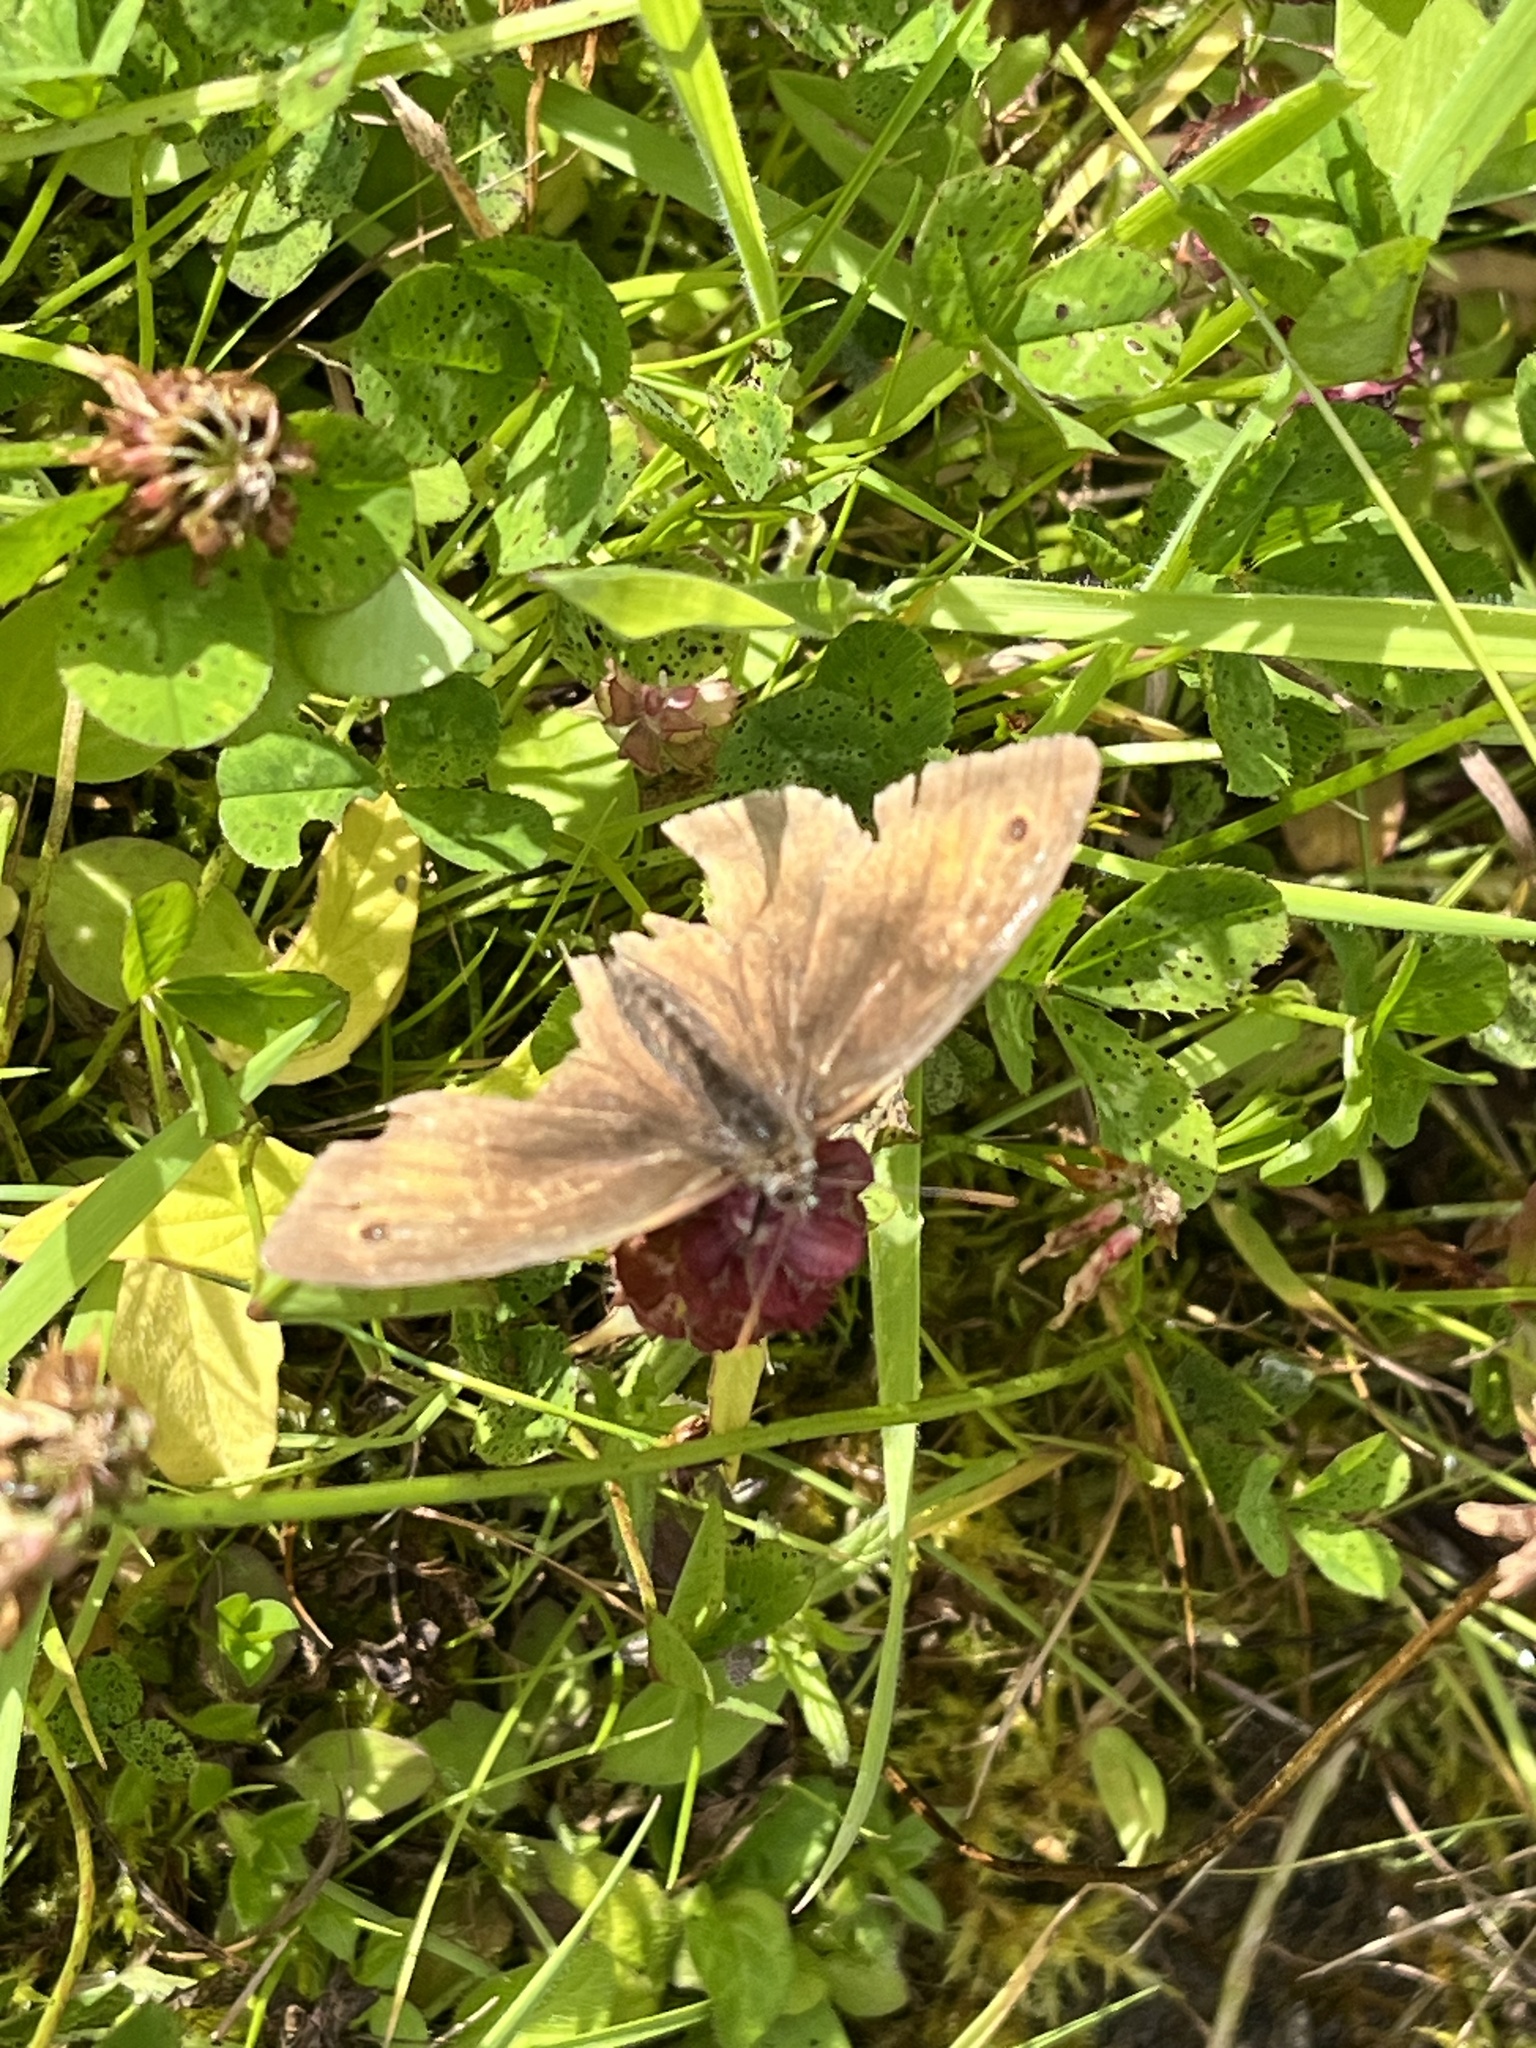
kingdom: Animalia
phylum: Arthropoda
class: Insecta
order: Lepidoptera
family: Nymphalidae
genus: Maniola
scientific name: Maniola jurtina
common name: Meadow brown
